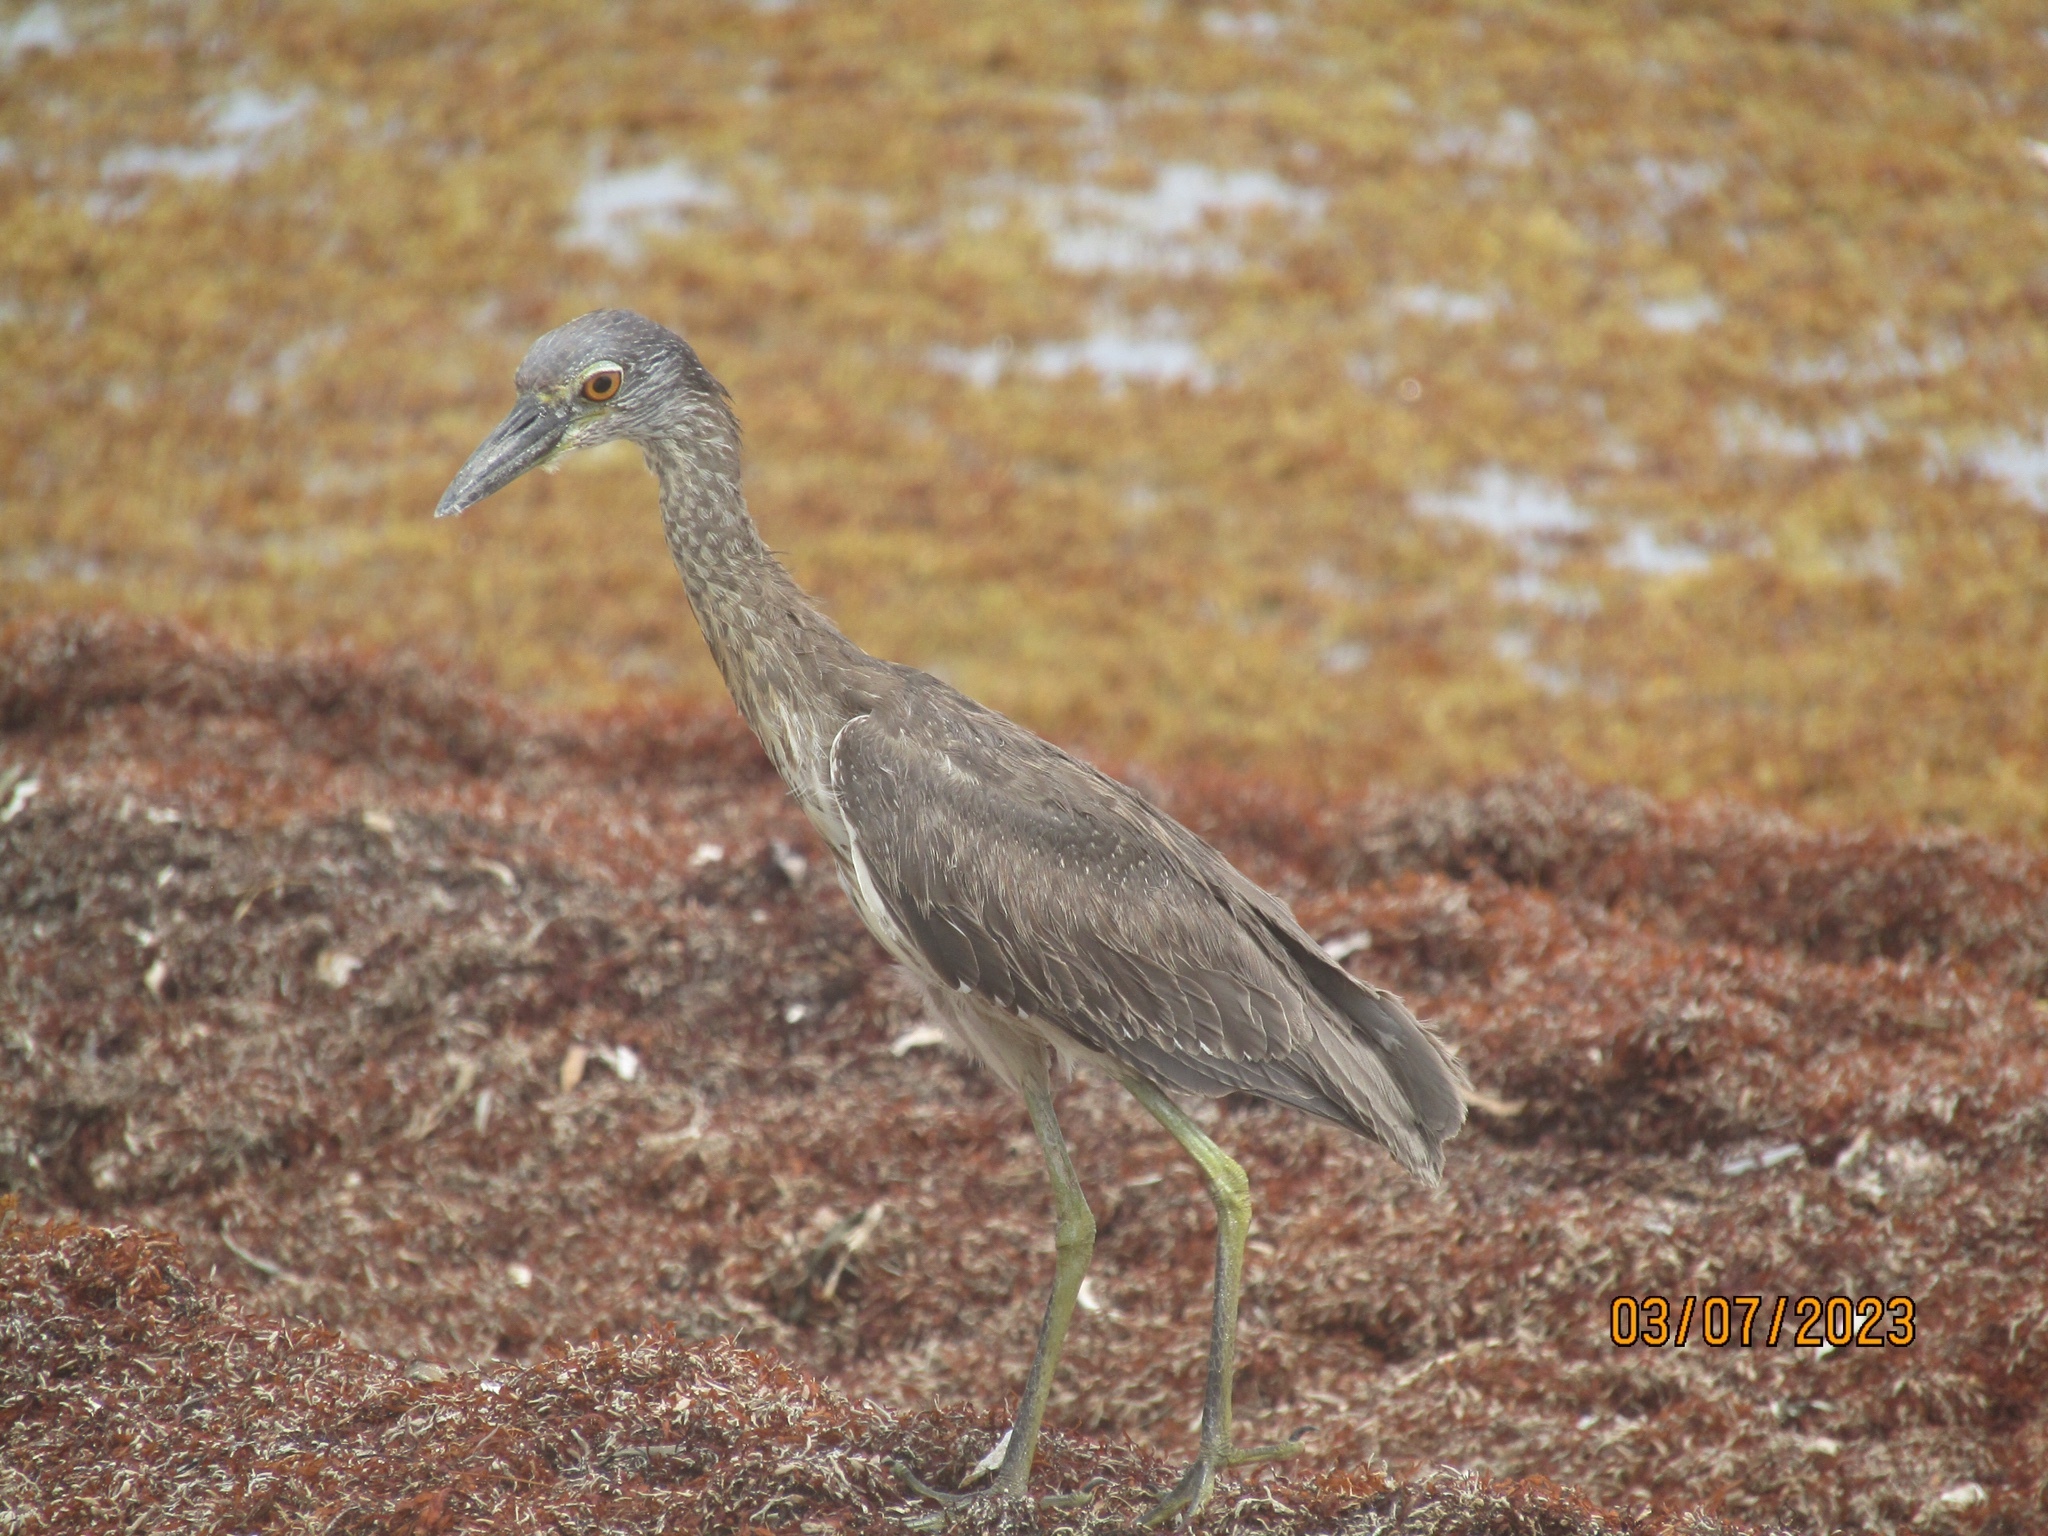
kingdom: Animalia
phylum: Chordata
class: Aves
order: Pelecaniformes
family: Ardeidae
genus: Nyctanassa
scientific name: Nyctanassa violacea
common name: Yellow-crowned night heron
